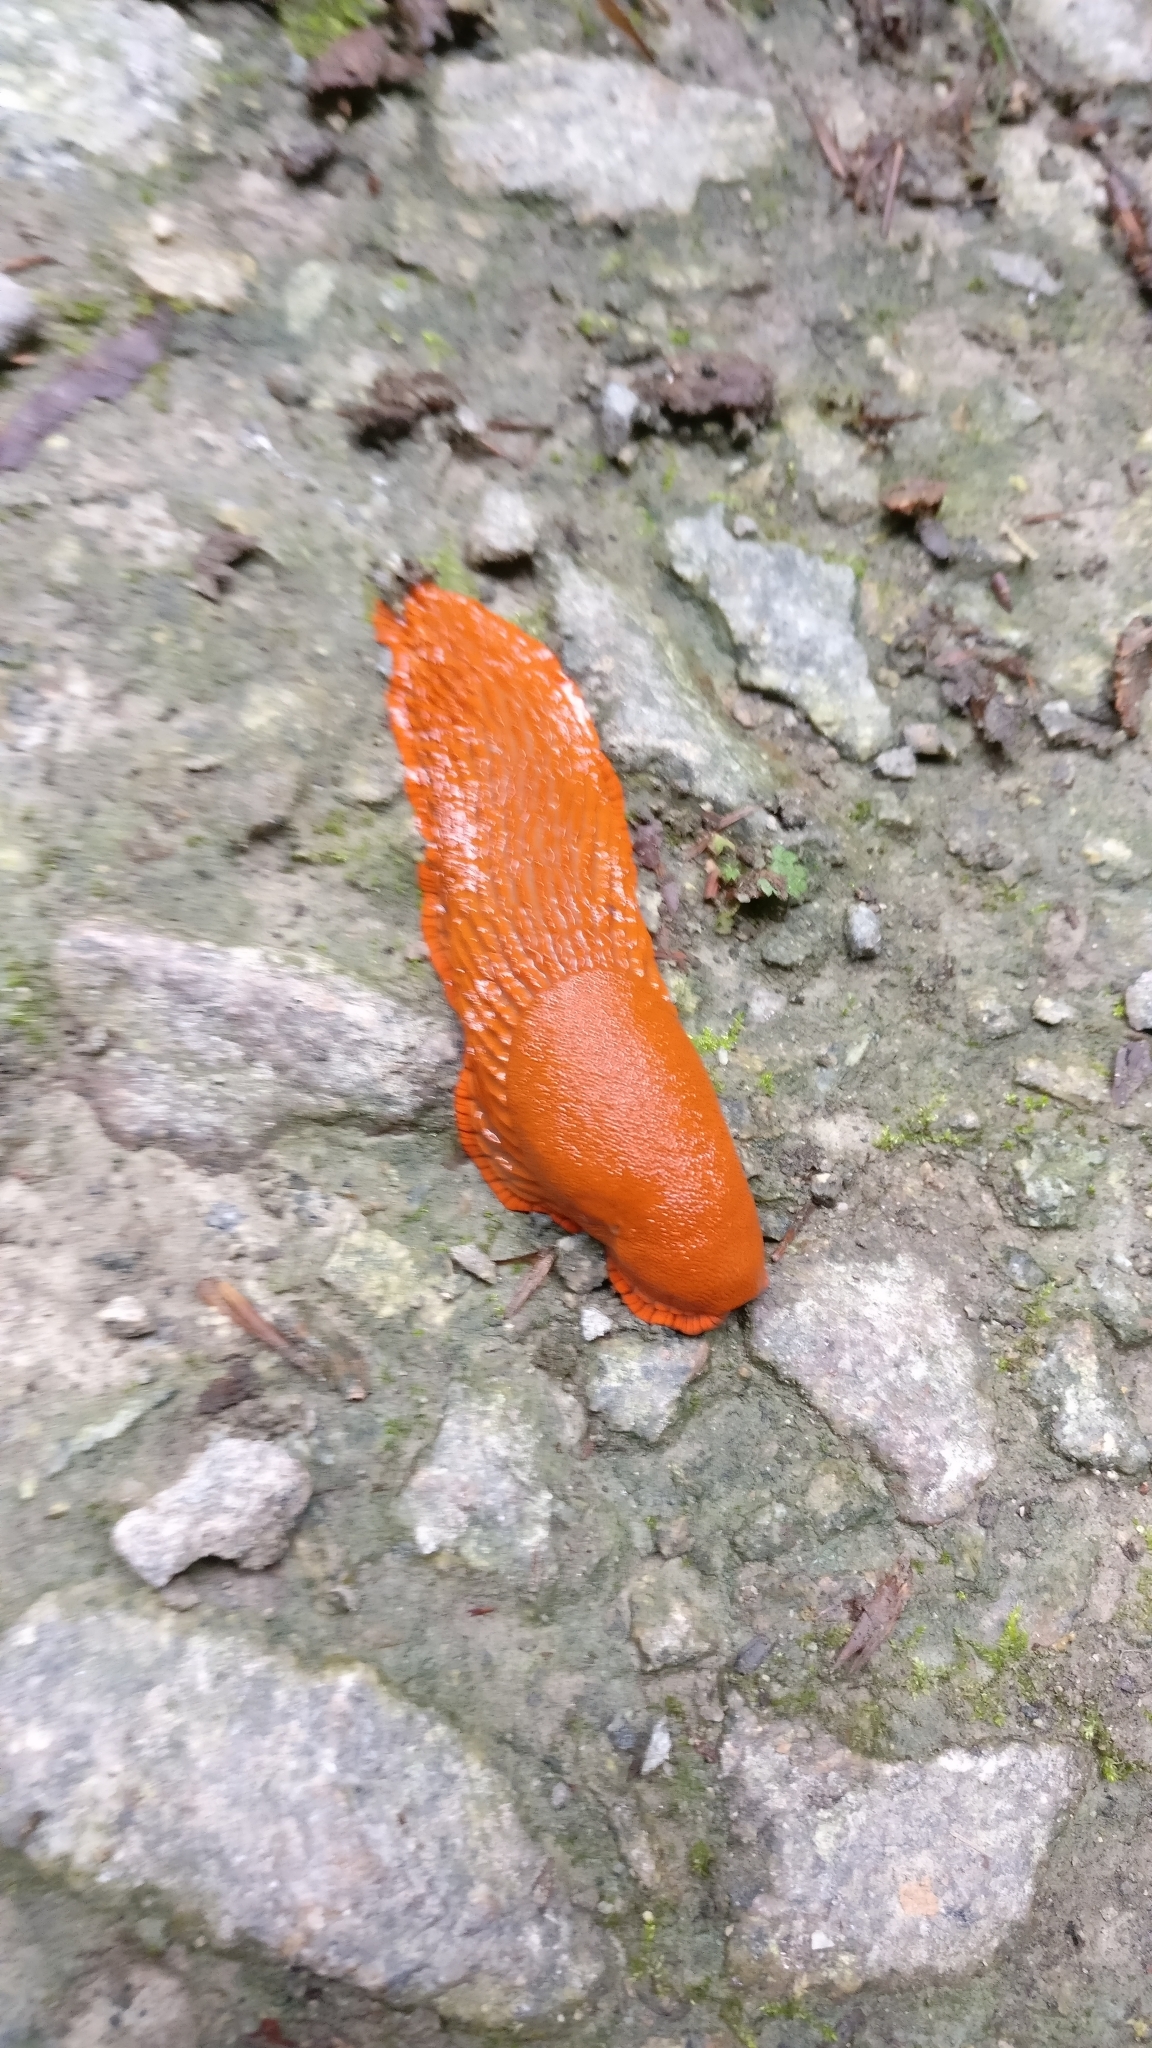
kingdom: Animalia
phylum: Mollusca
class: Gastropoda
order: Stylommatophora
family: Arionidae
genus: Arion
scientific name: Arion vulgaris
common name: Lusitanian slug
